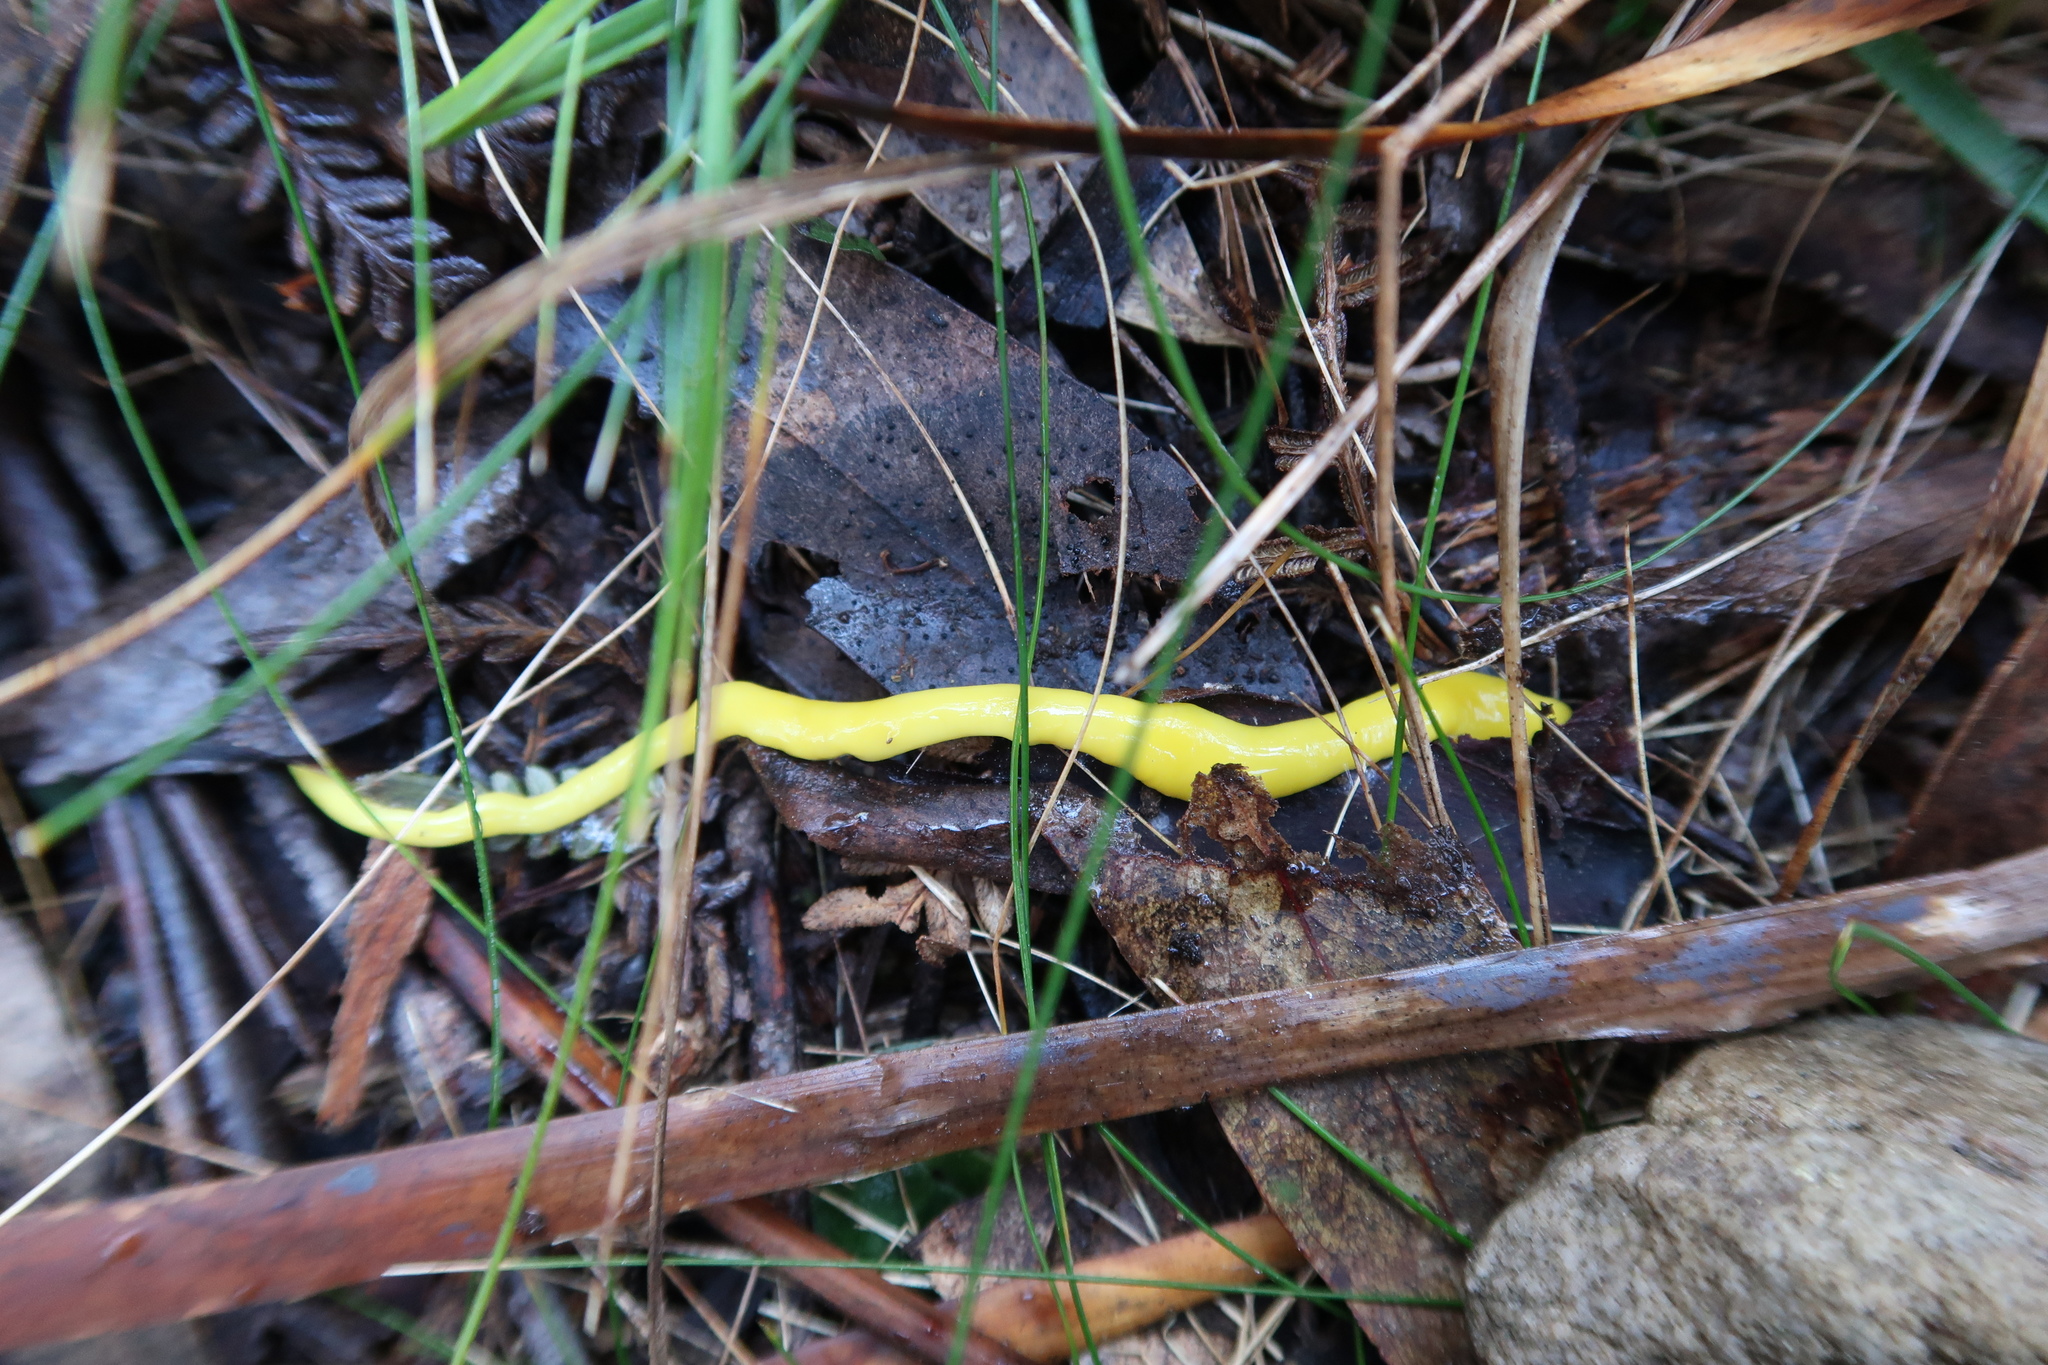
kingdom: Animalia
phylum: Platyhelminthes
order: Tricladida
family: Geoplanidae
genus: Fletchamia
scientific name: Fletchamia sugdeni
